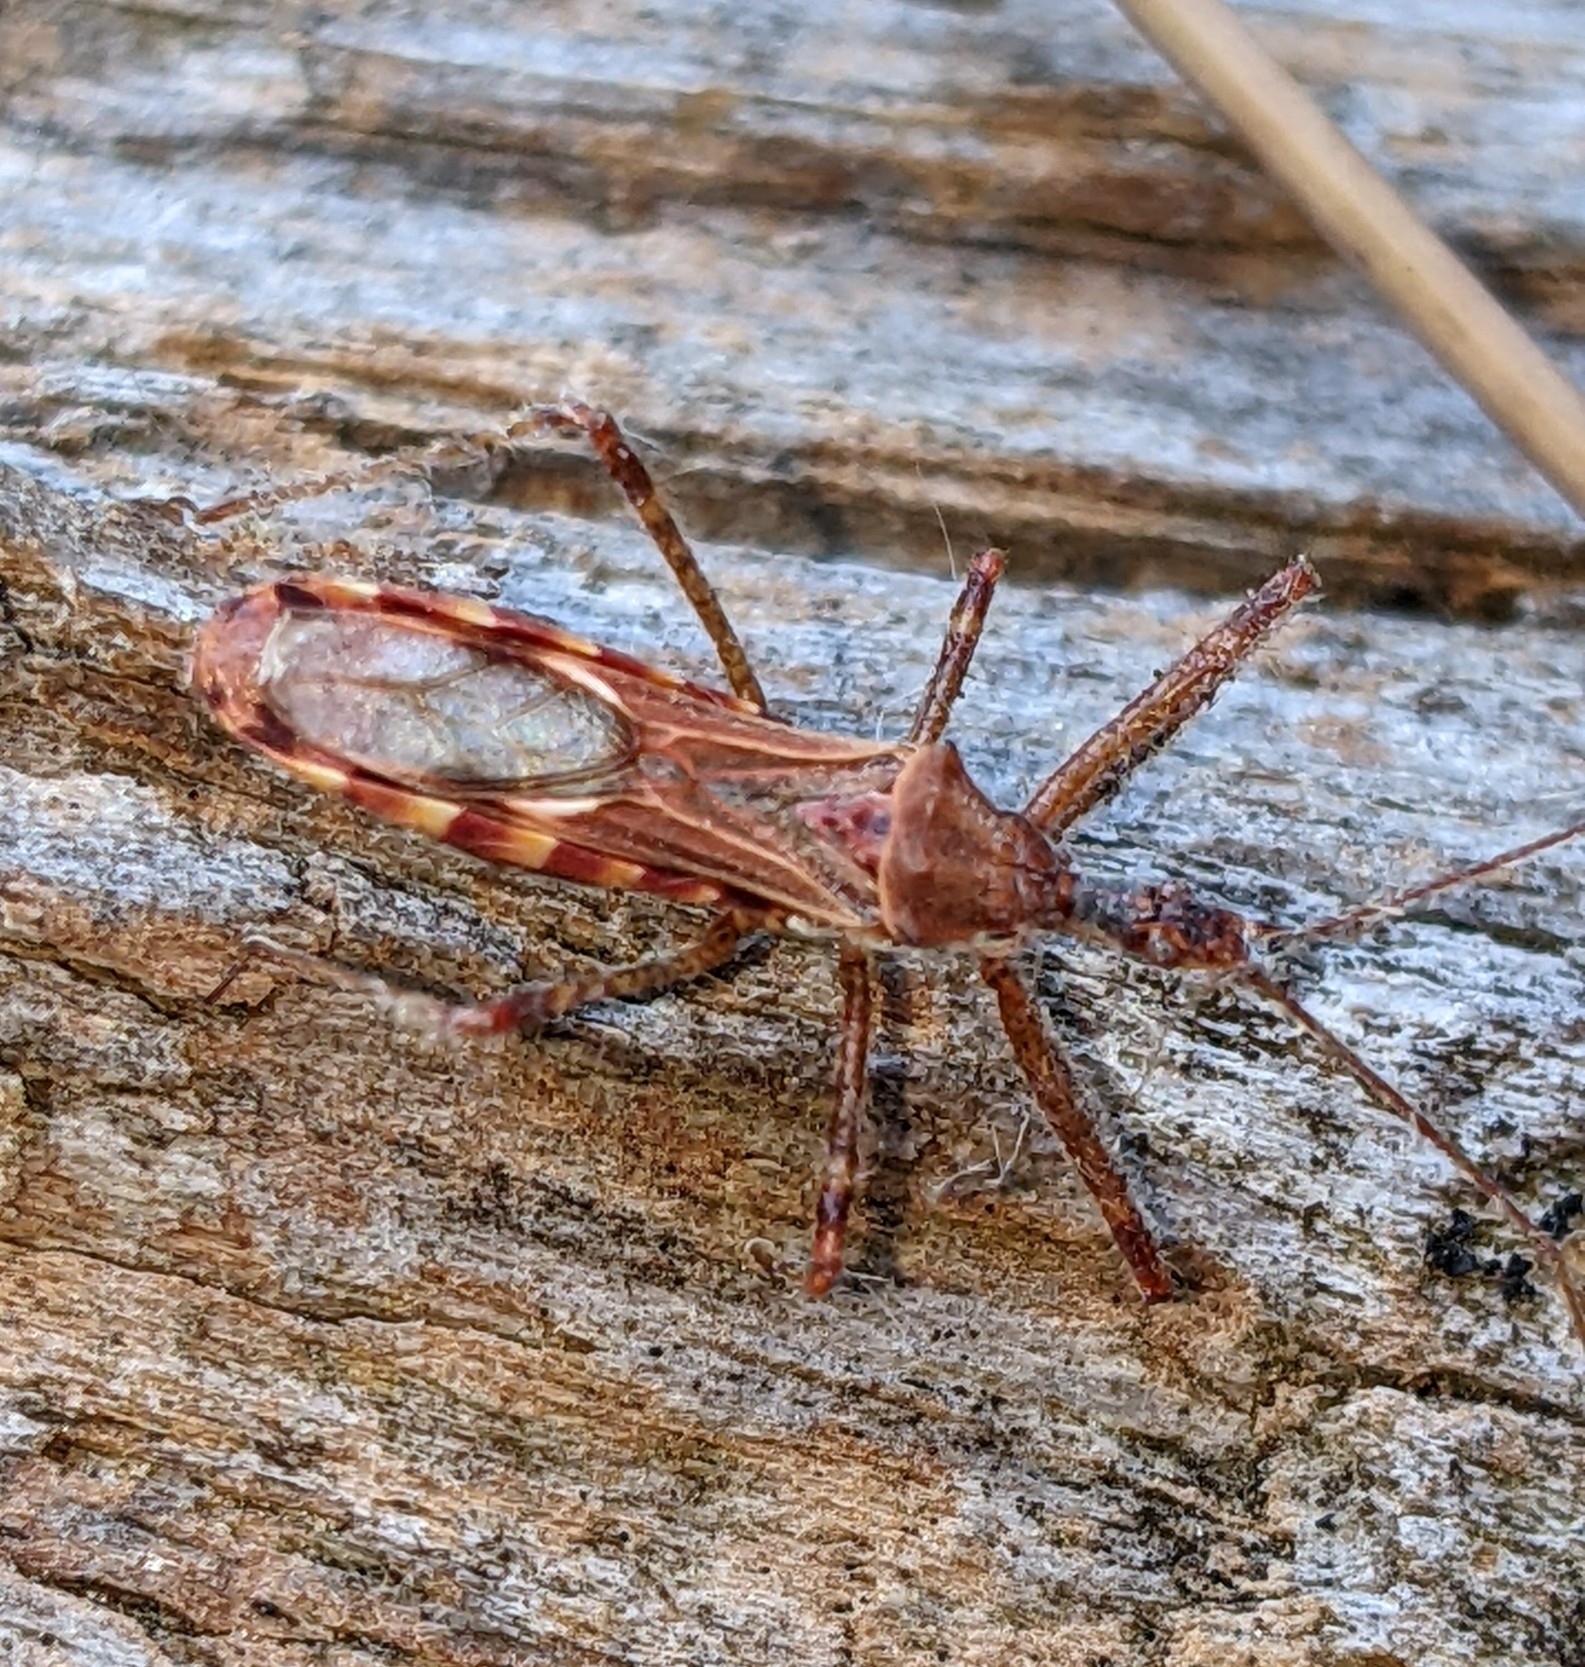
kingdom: Animalia
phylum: Arthropoda
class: Insecta
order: Hemiptera
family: Reduviidae
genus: Zelus
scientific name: Zelus tetracanthus
